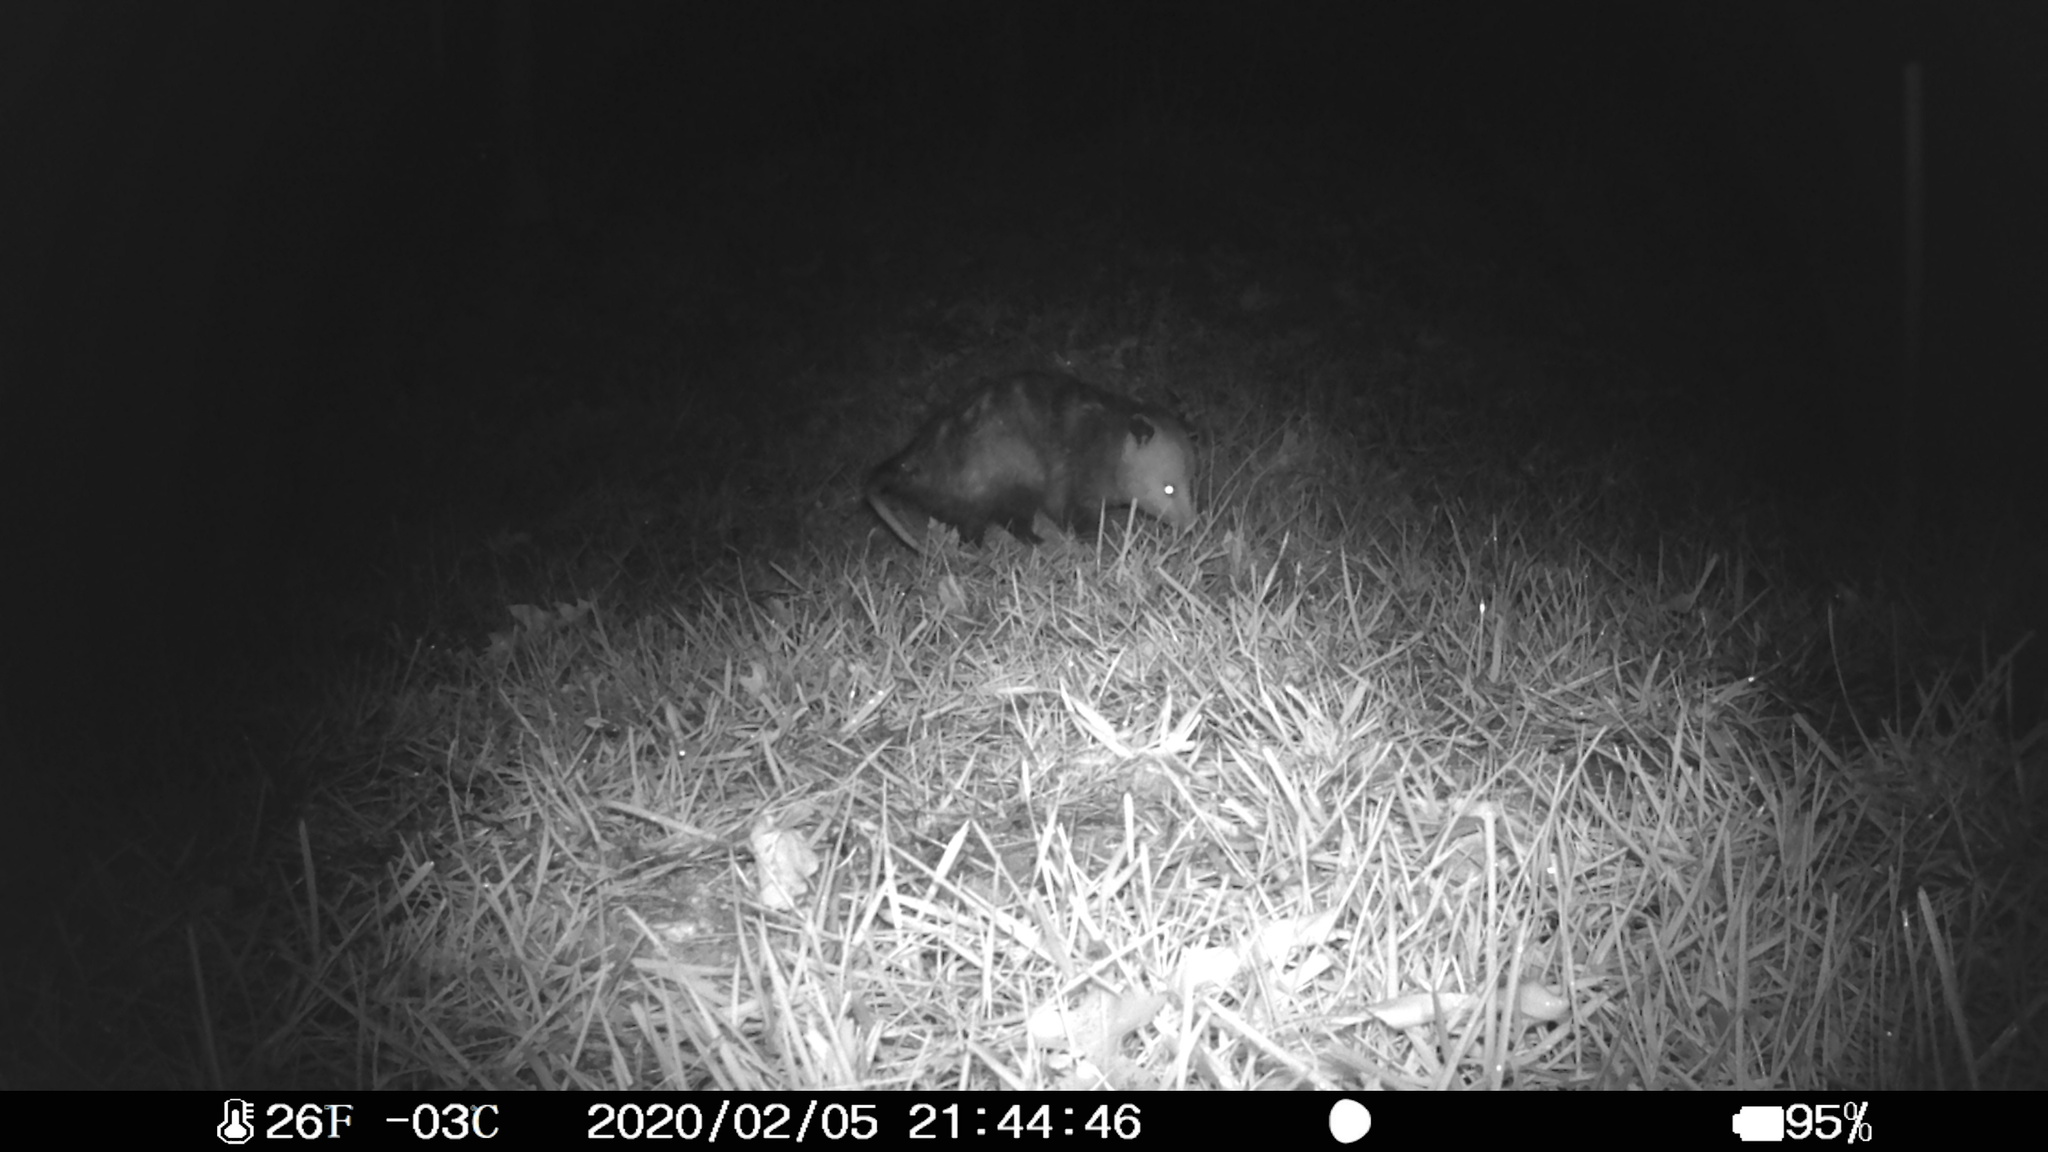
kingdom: Animalia
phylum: Chordata
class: Mammalia
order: Didelphimorphia
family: Didelphidae
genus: Didelphis
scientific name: Didelphis virginiana
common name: Virginia opossum
